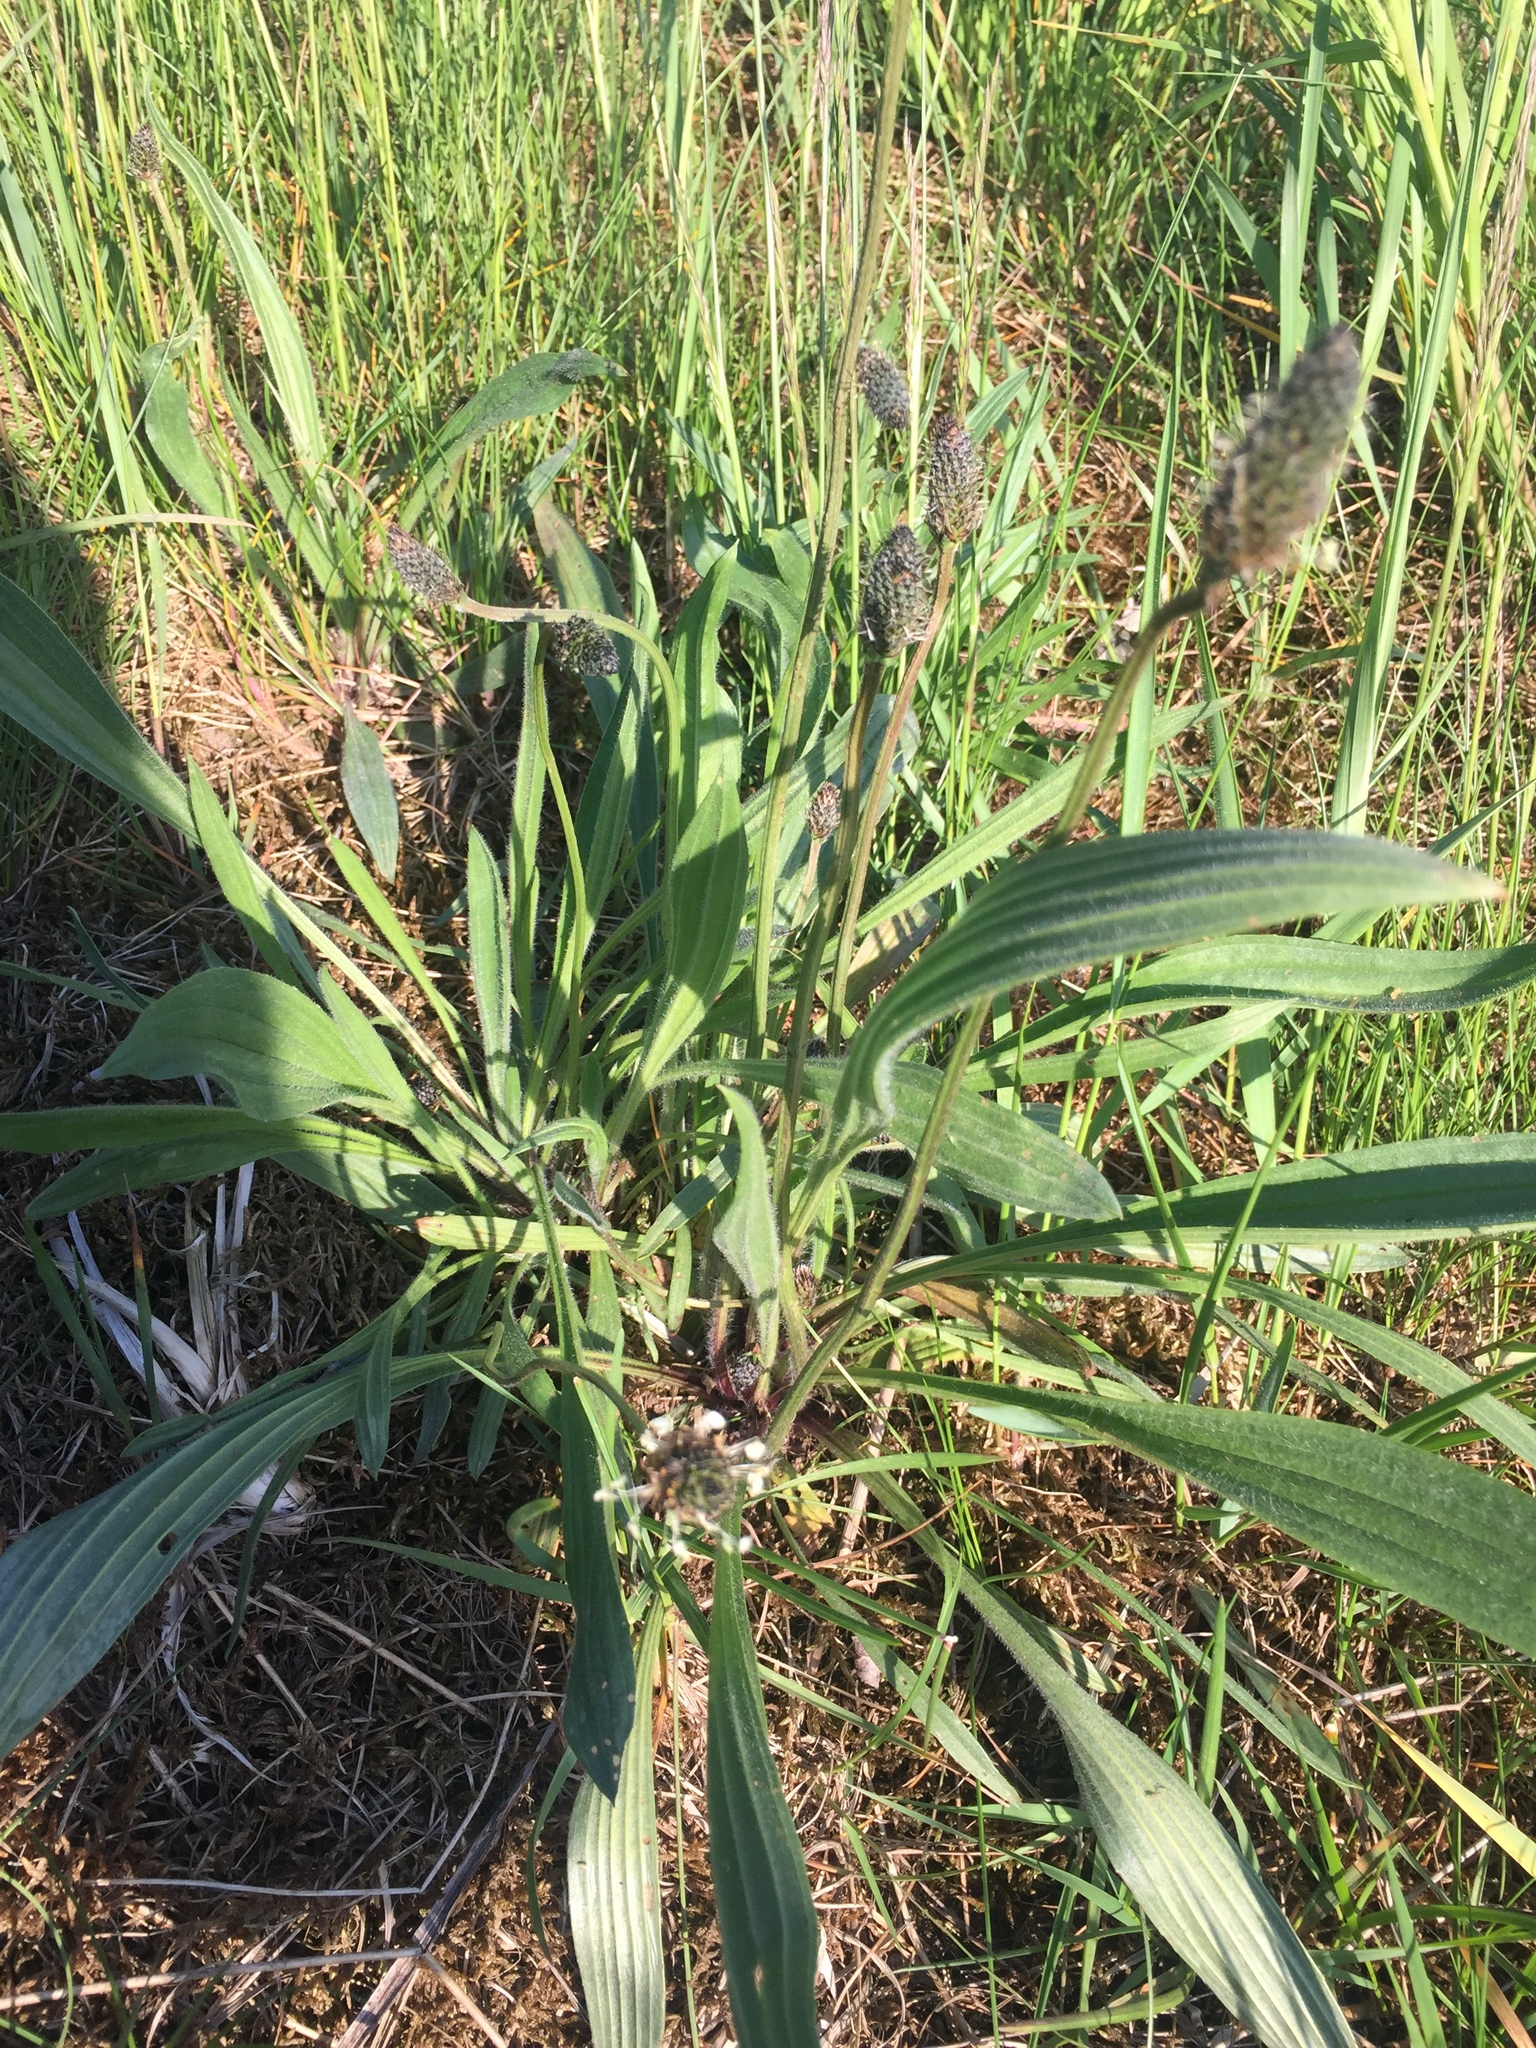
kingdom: Plantae
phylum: Tracheophyta
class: Magnoliopsida
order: Lamiales
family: Plantaginaceae
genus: Plantago
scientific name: Plantago lanceolata
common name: Ribwort plantain
